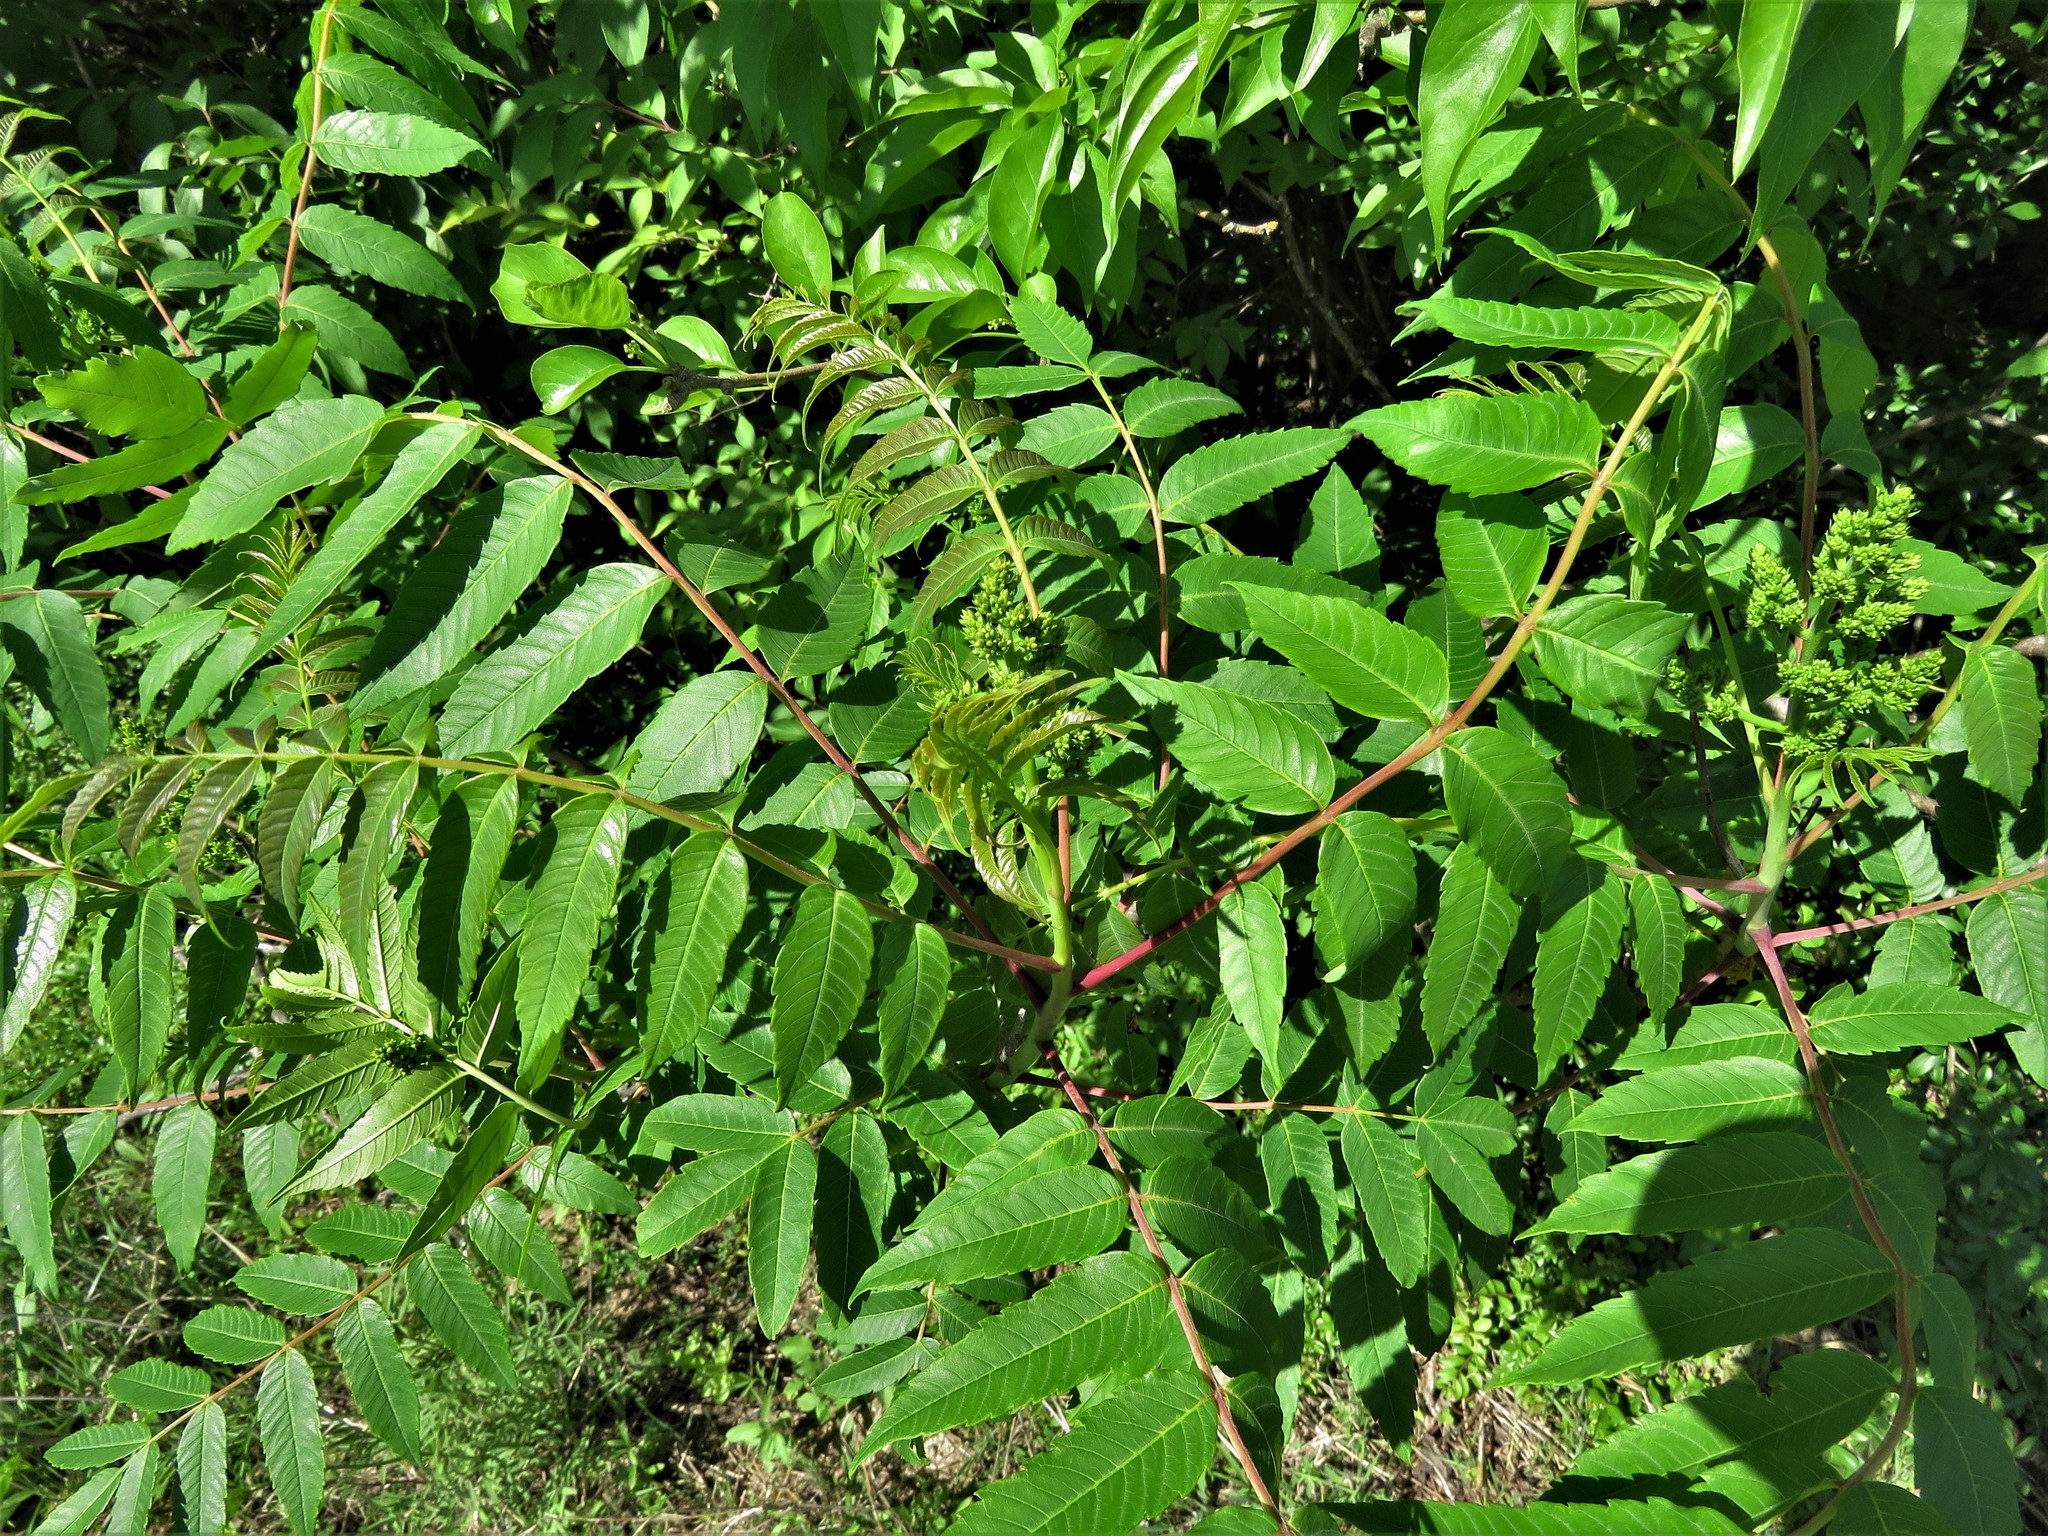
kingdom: Plantae
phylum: Tracheophyta
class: Magnoliopsida
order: Sapindales
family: Anacardiaceae
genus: Rhus
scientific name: Rhus glabra
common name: Scarlet sumac
